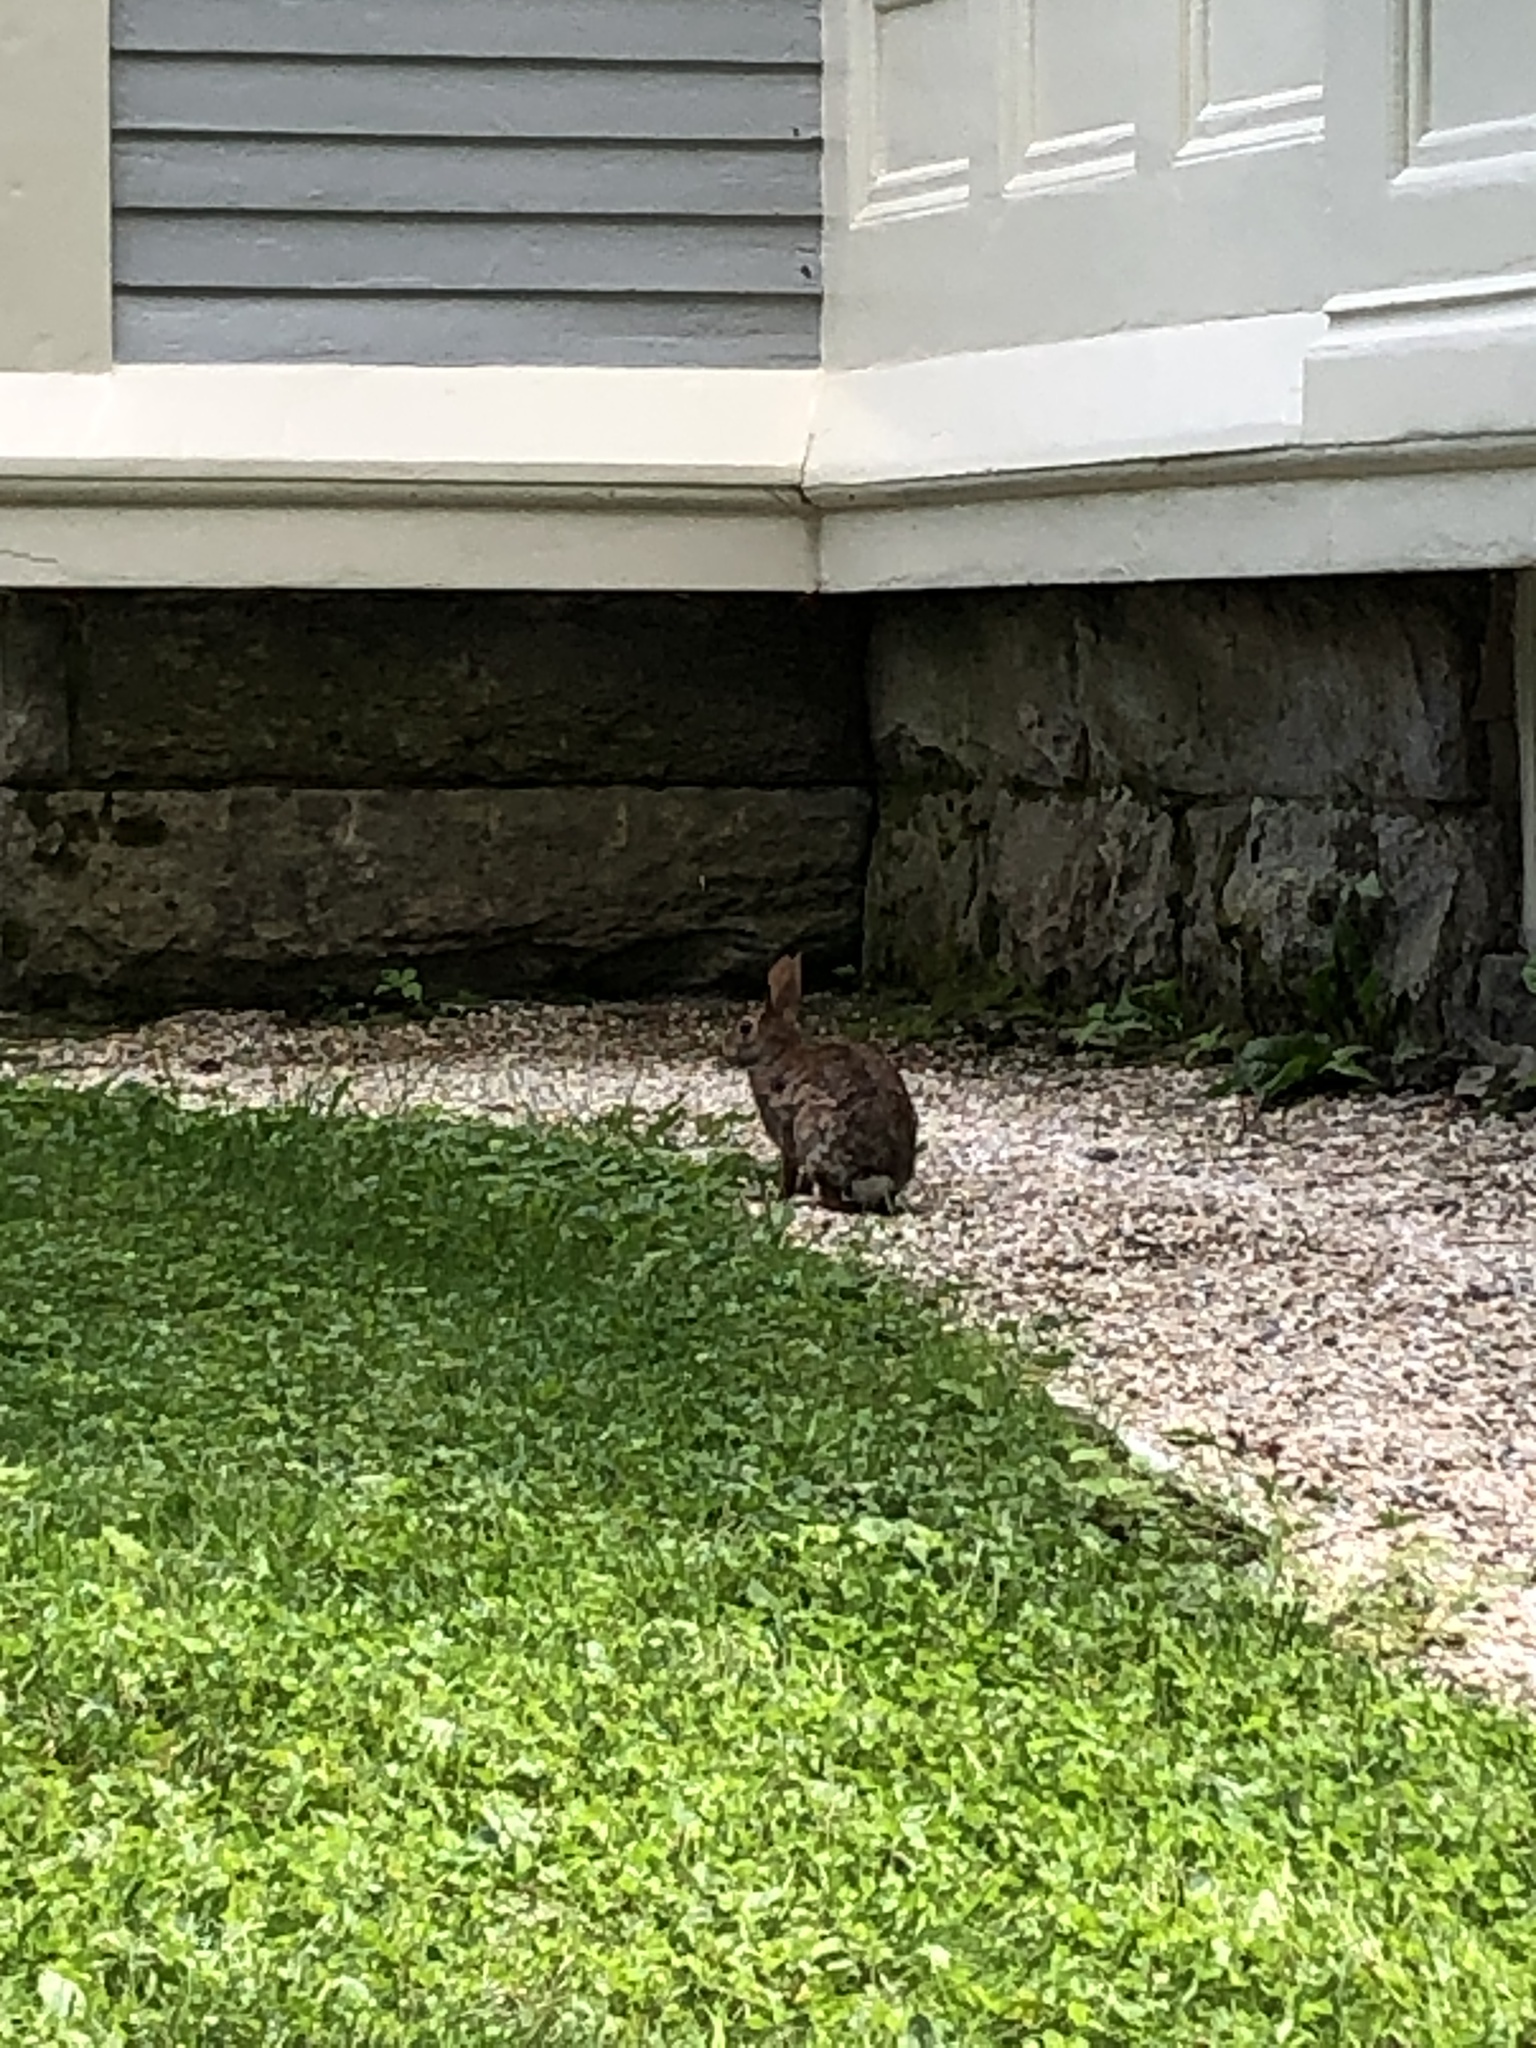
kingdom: Animalia
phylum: Chordata
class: Mammalia
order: Lagomorpha
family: Leporidae
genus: Sylvilagus
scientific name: Sylvilagus floridanus
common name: Eastern cottontail
